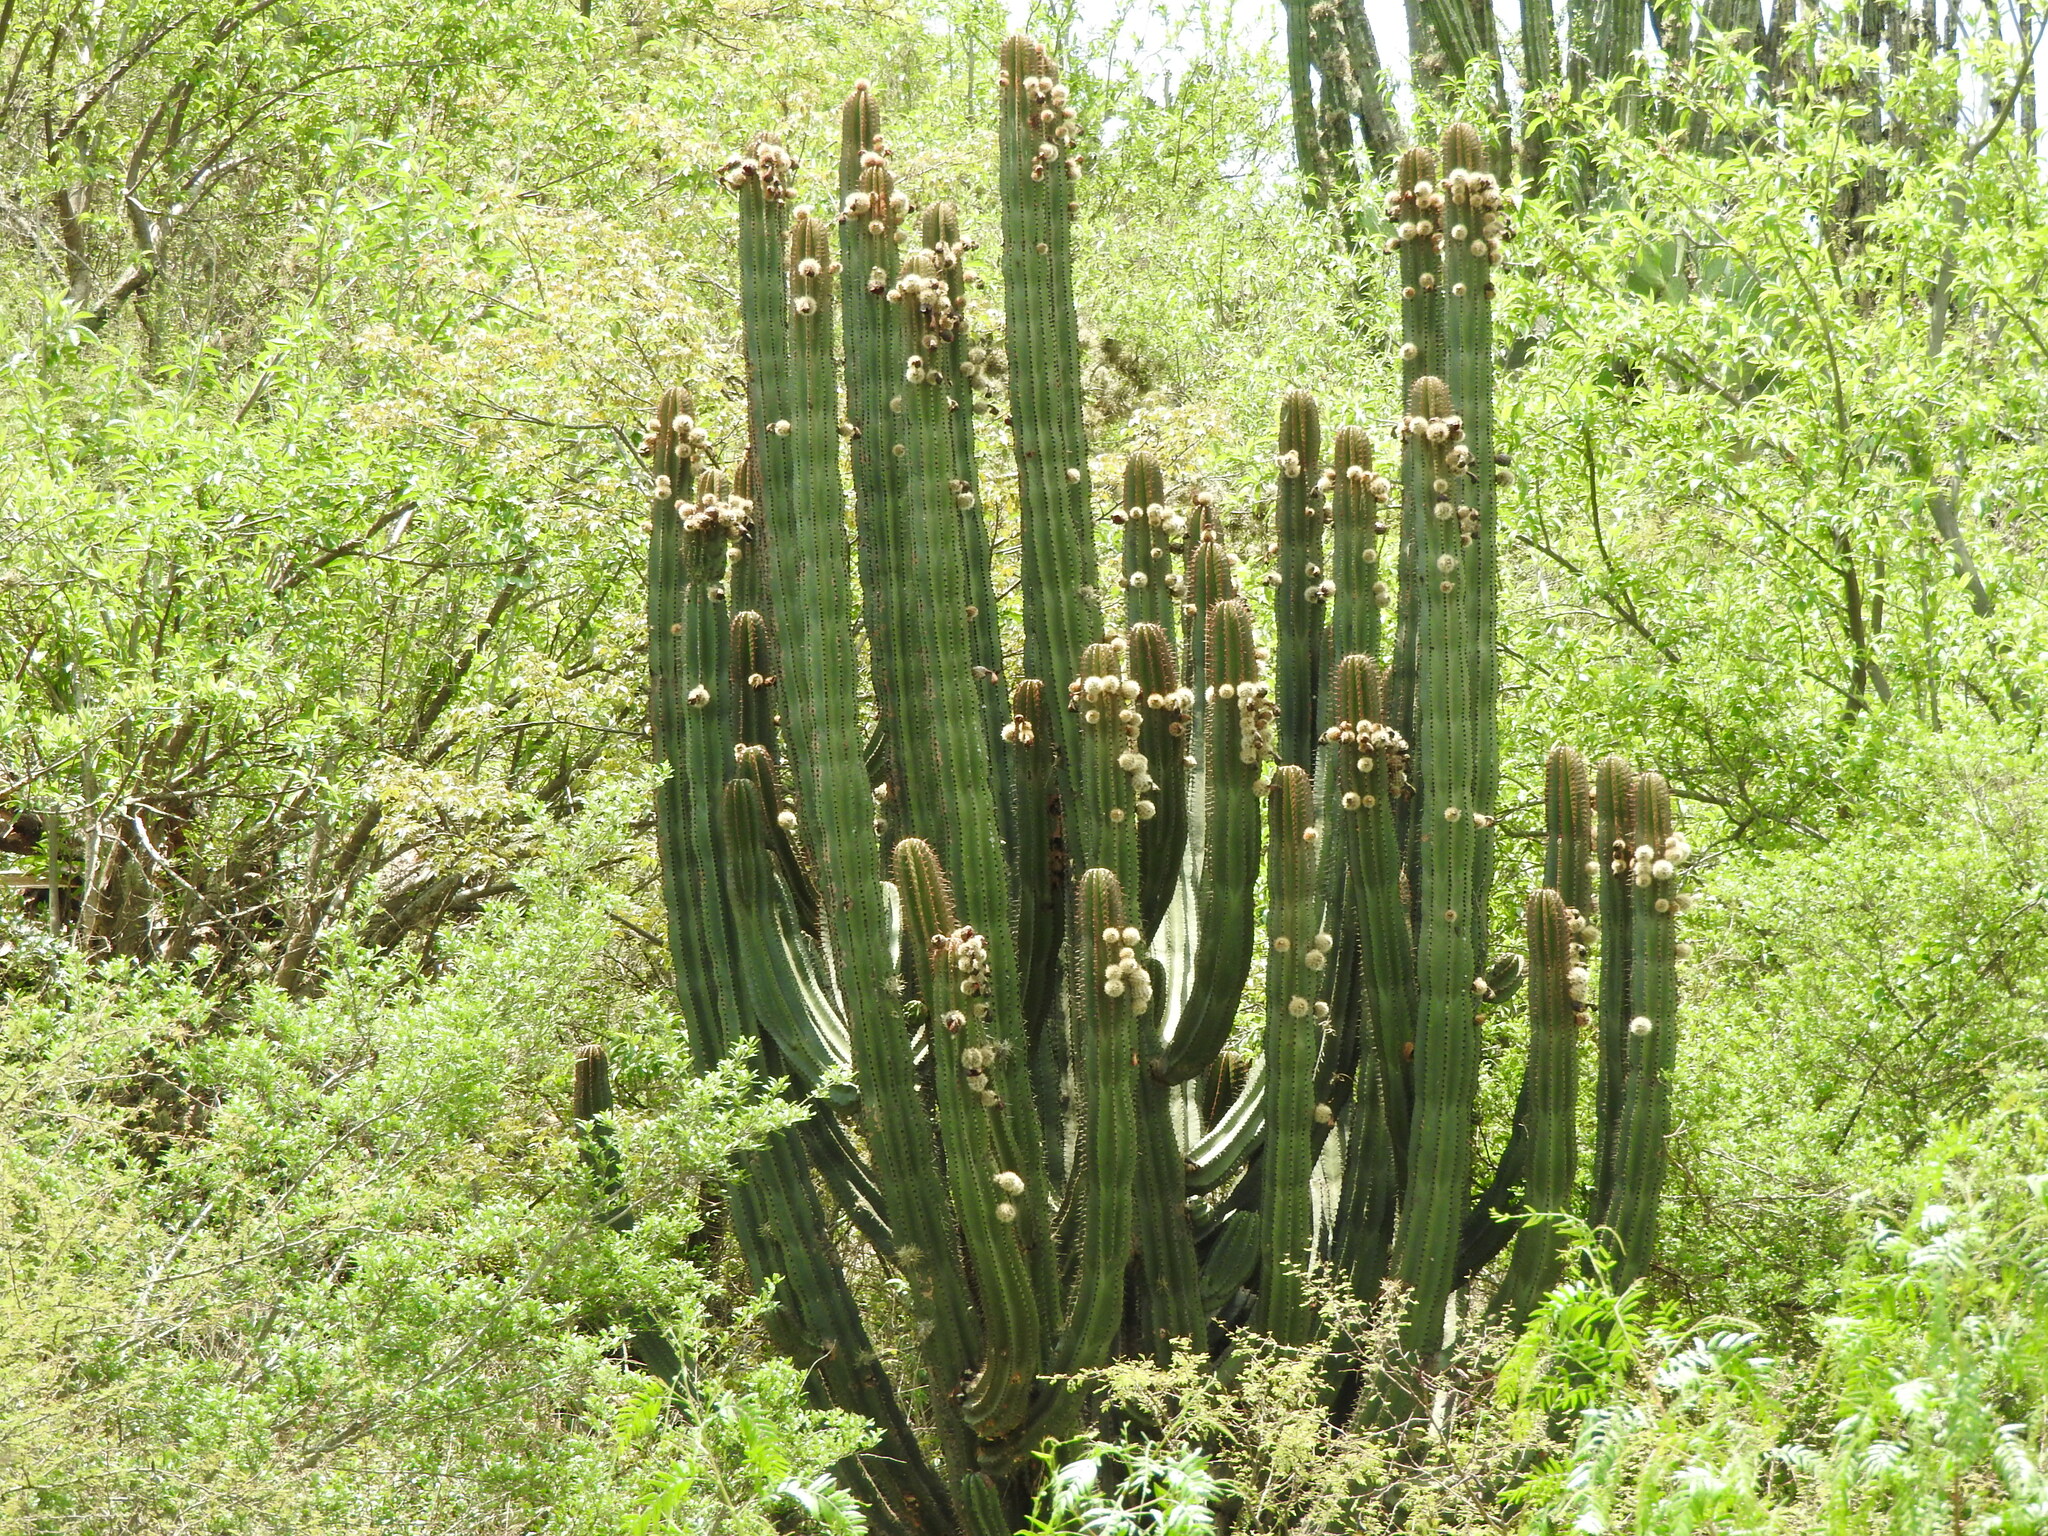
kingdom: Plantae
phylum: Tracheophyta
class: Magnoliopsida
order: Caryophyllales
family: Cactaceae
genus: Stenocereus
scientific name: Stenocereus queretaroensis
